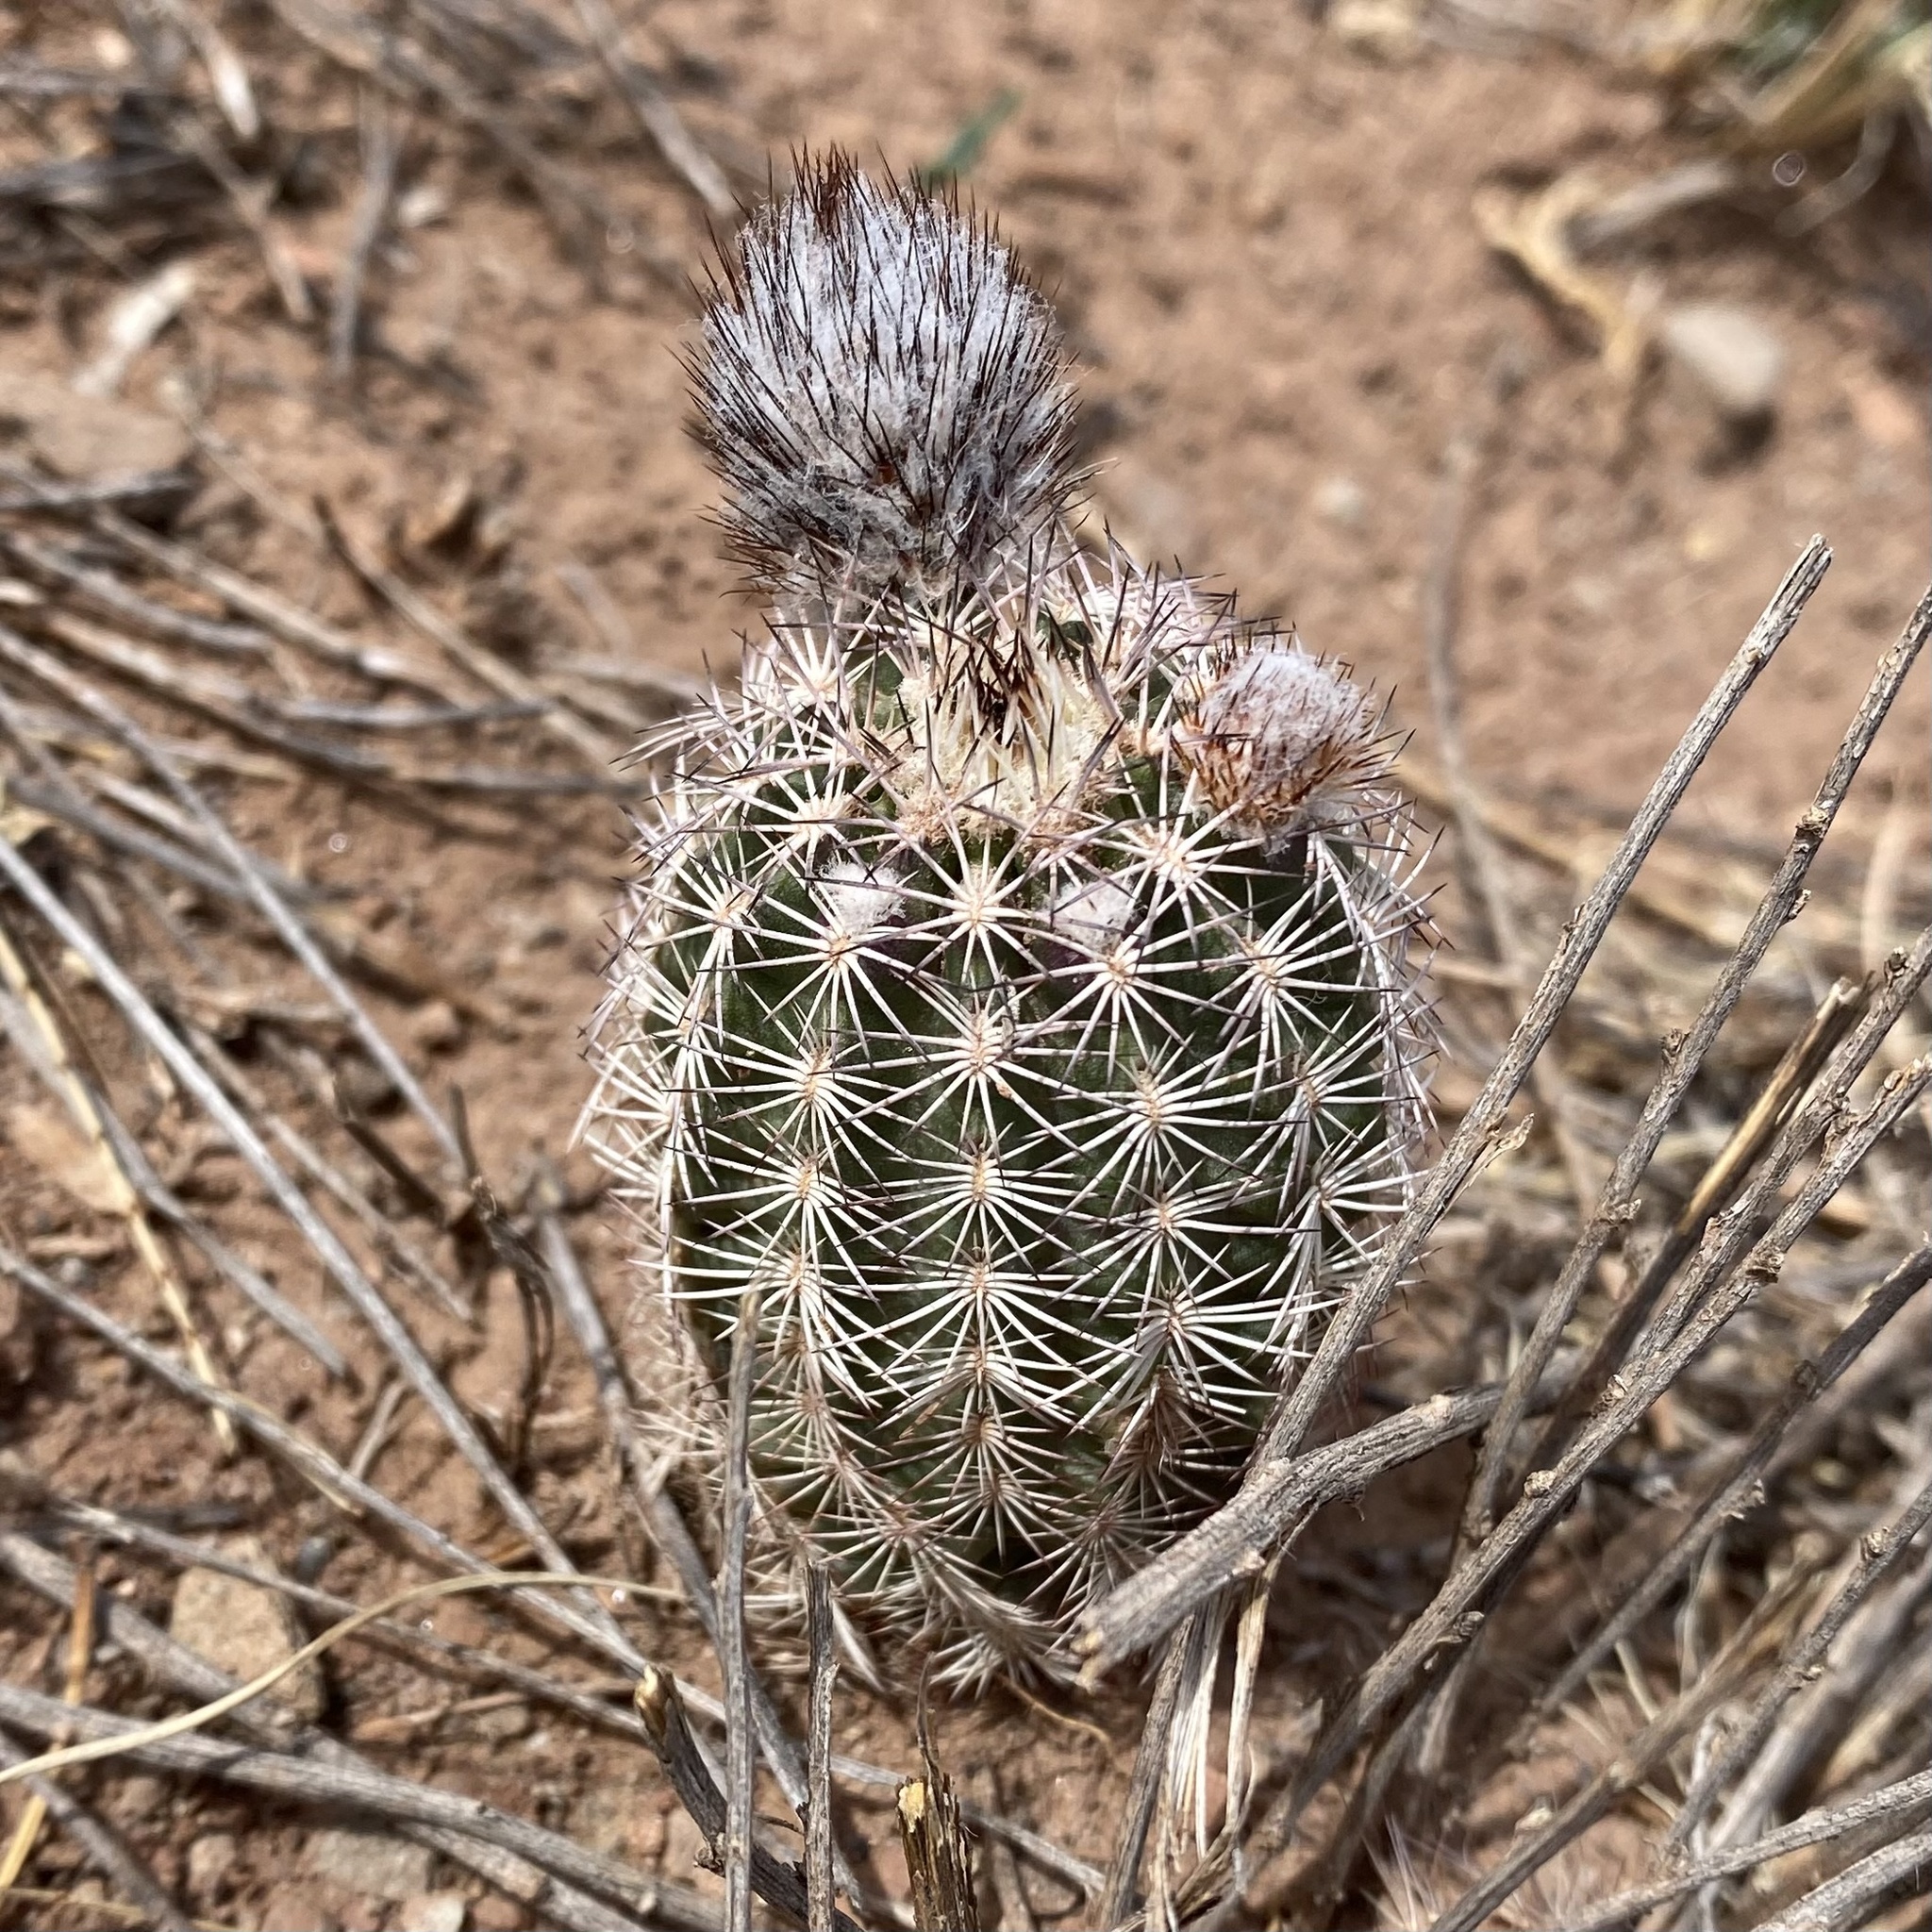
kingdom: Plantae
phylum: Tracheophyta
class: Magnoliopsida
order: Caryophyllales
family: Cactaceae
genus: Echinocereus
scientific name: Echinocereus reichenbachii
